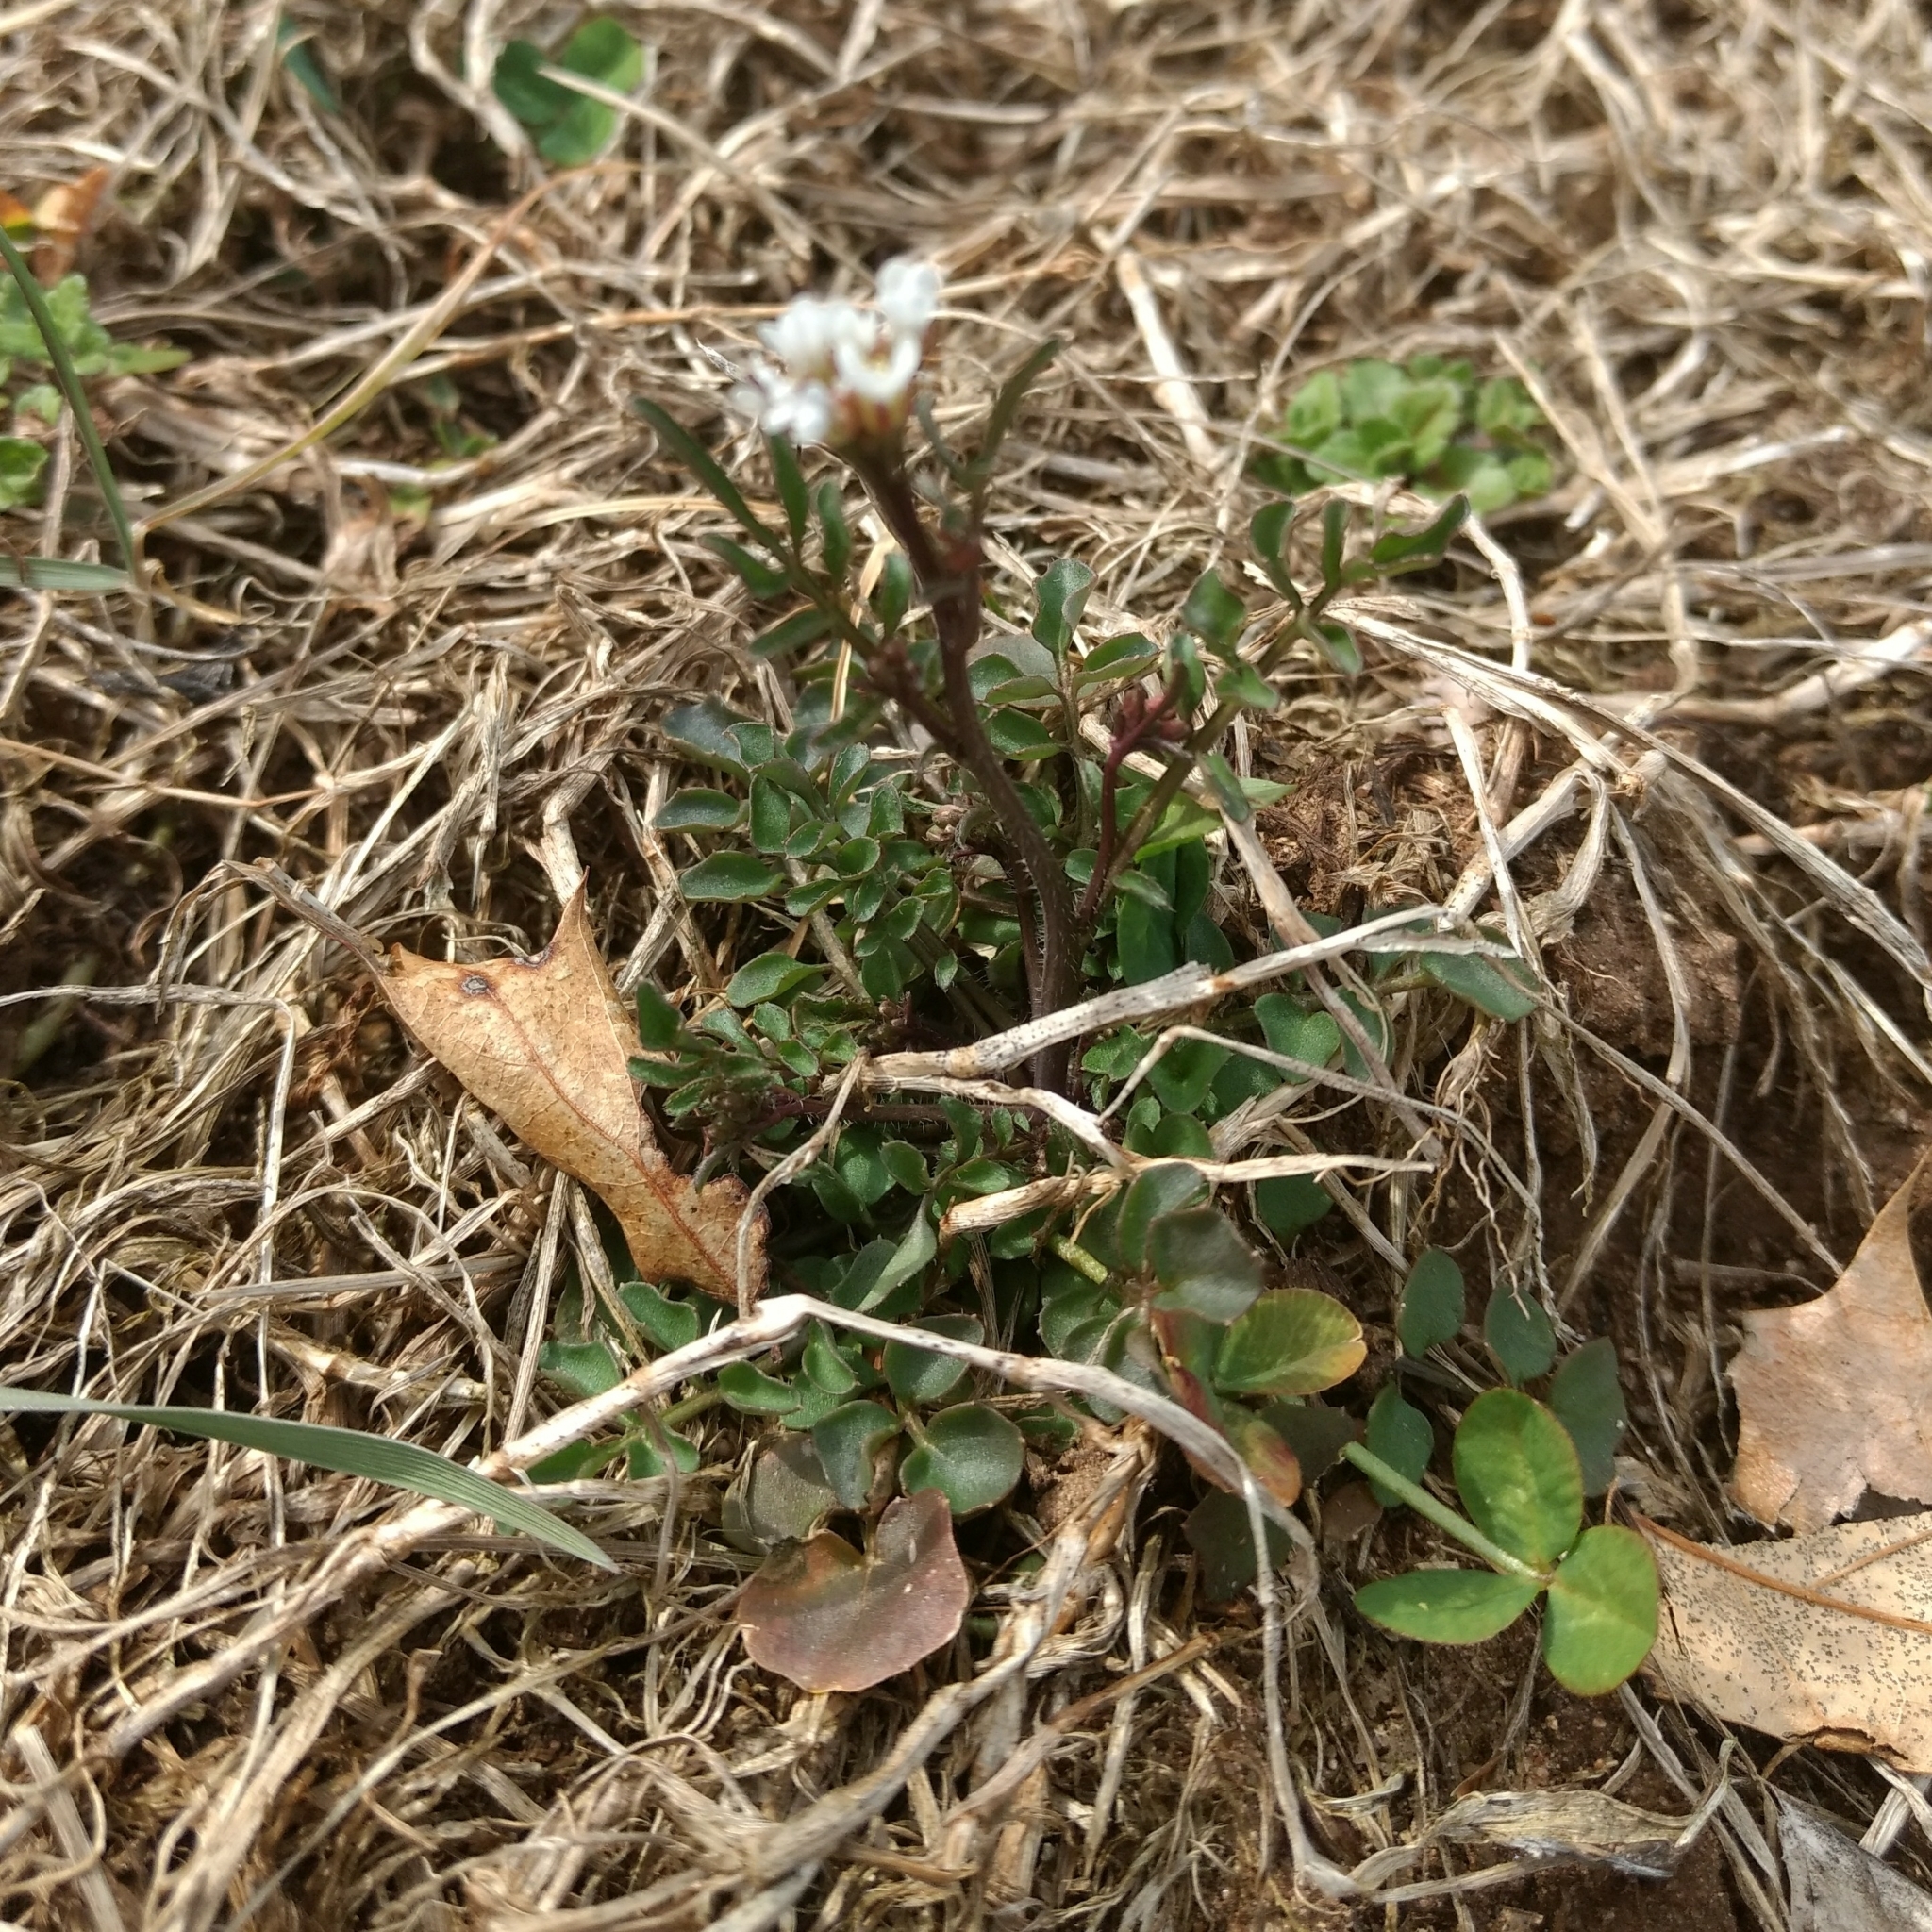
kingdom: Plantae
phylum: Tracheophyta
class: Magnoliopsida
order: Brassicales
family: Brassicaceae
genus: Cardamine
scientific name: Cardamine hirsuta
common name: Hairy bittercress
